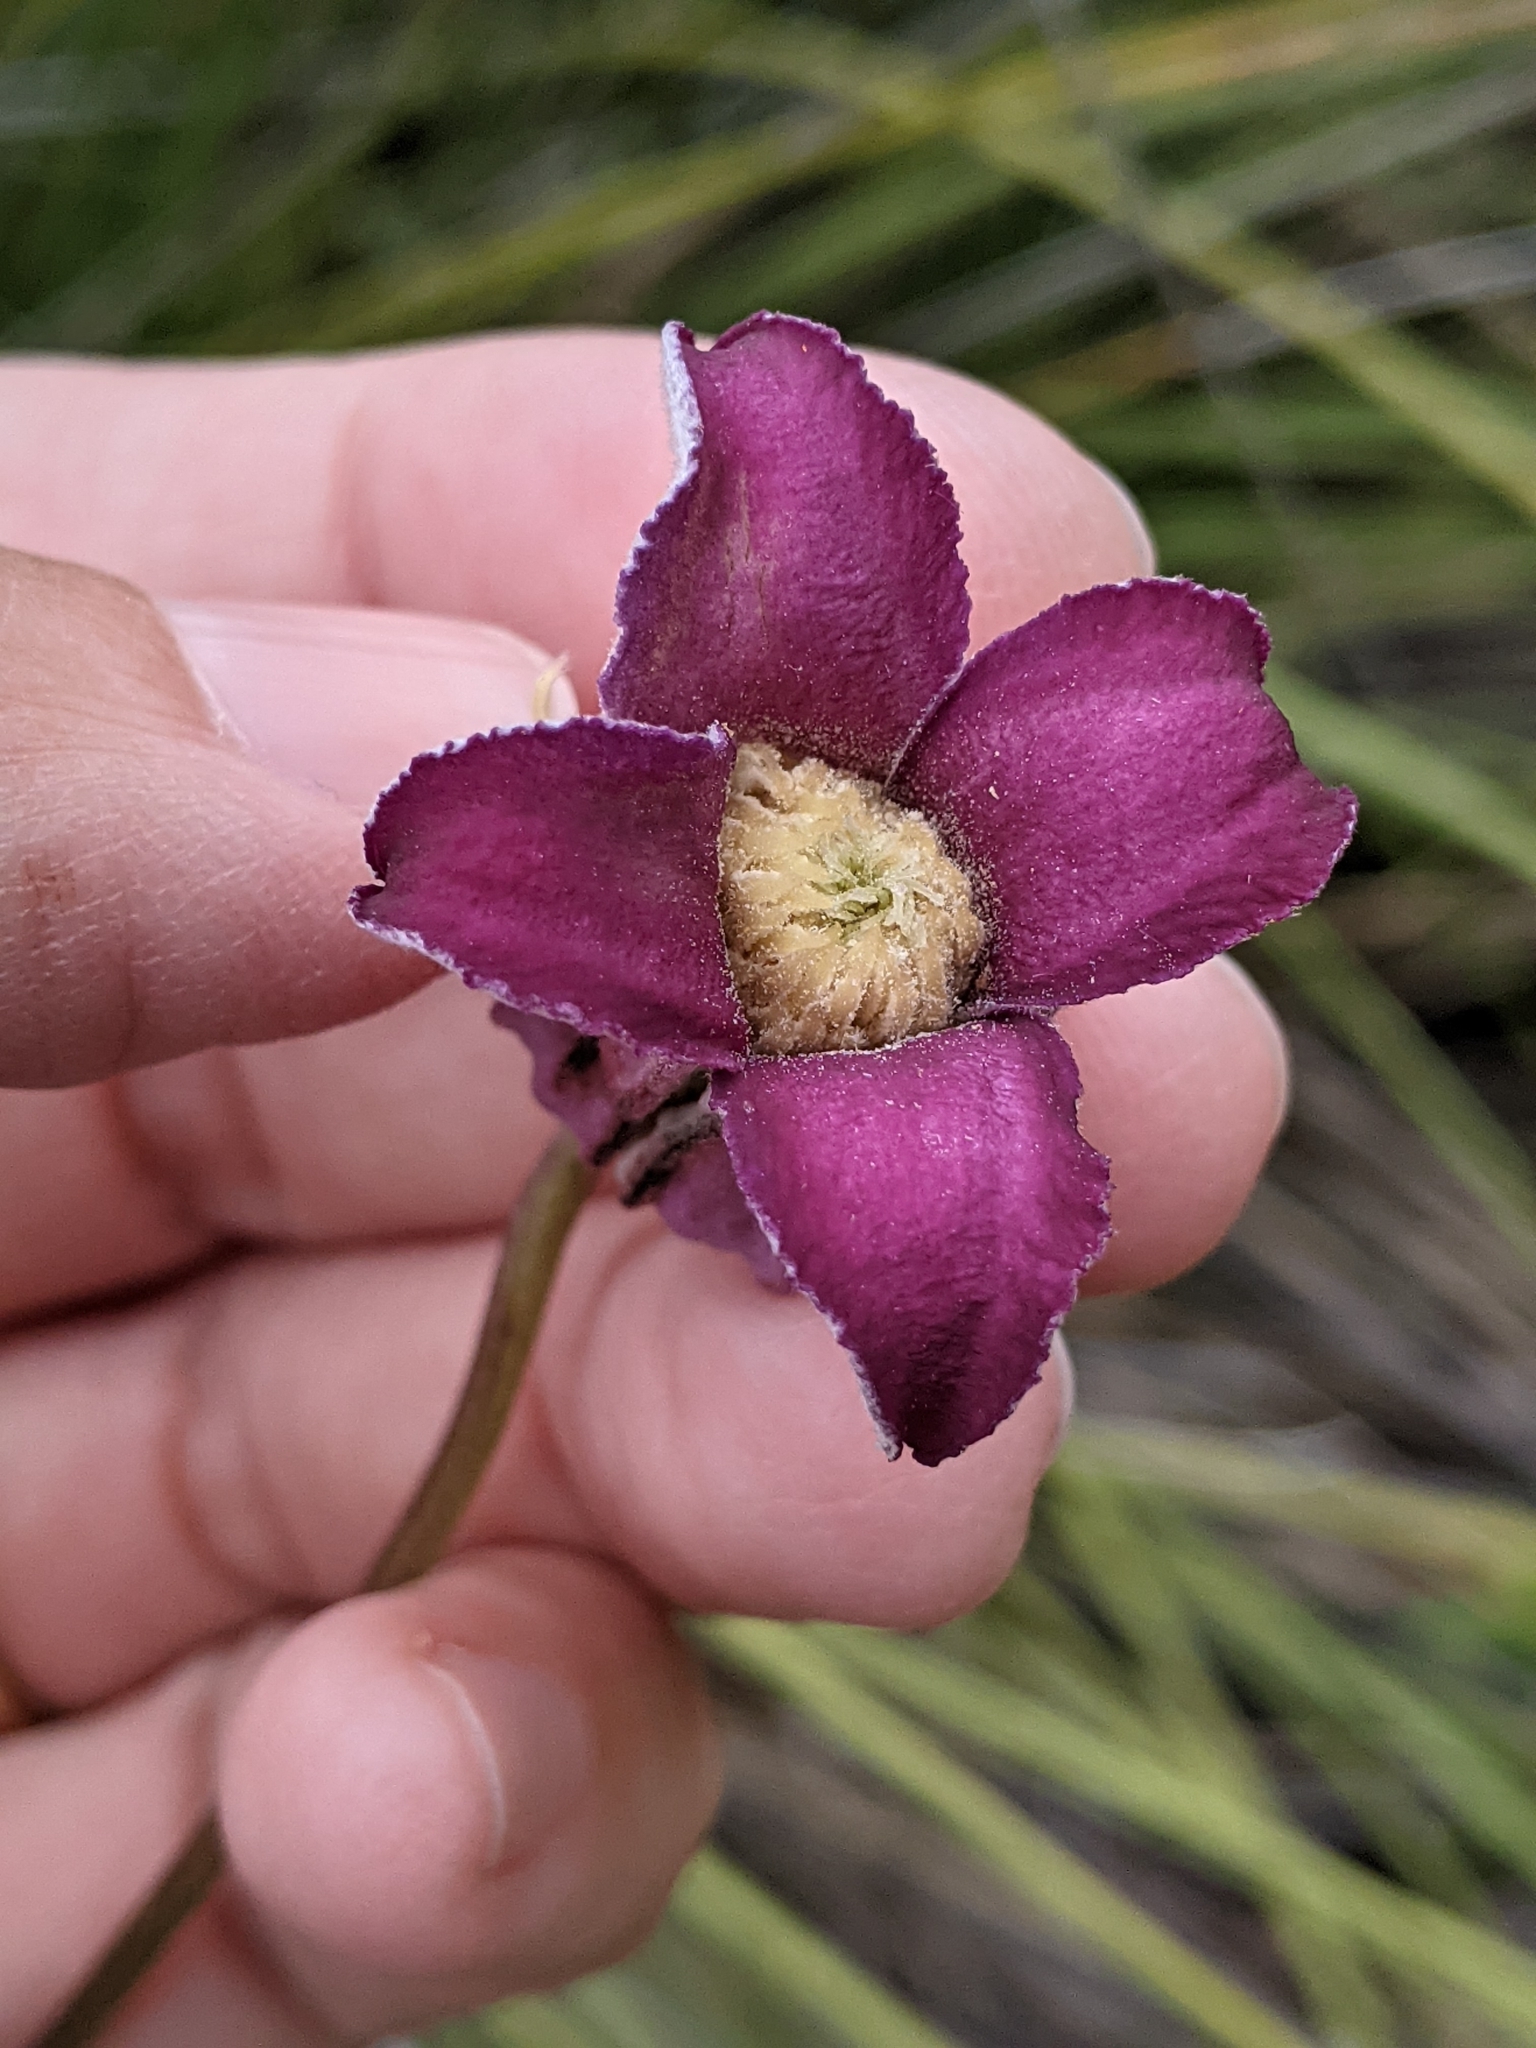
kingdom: Plantae
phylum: Tracheophyta
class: Magnoliopsida
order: Ranunculales
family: Ranunculaceae
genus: Clematis
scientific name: Clematis pitcheri
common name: Bellflower clematis
